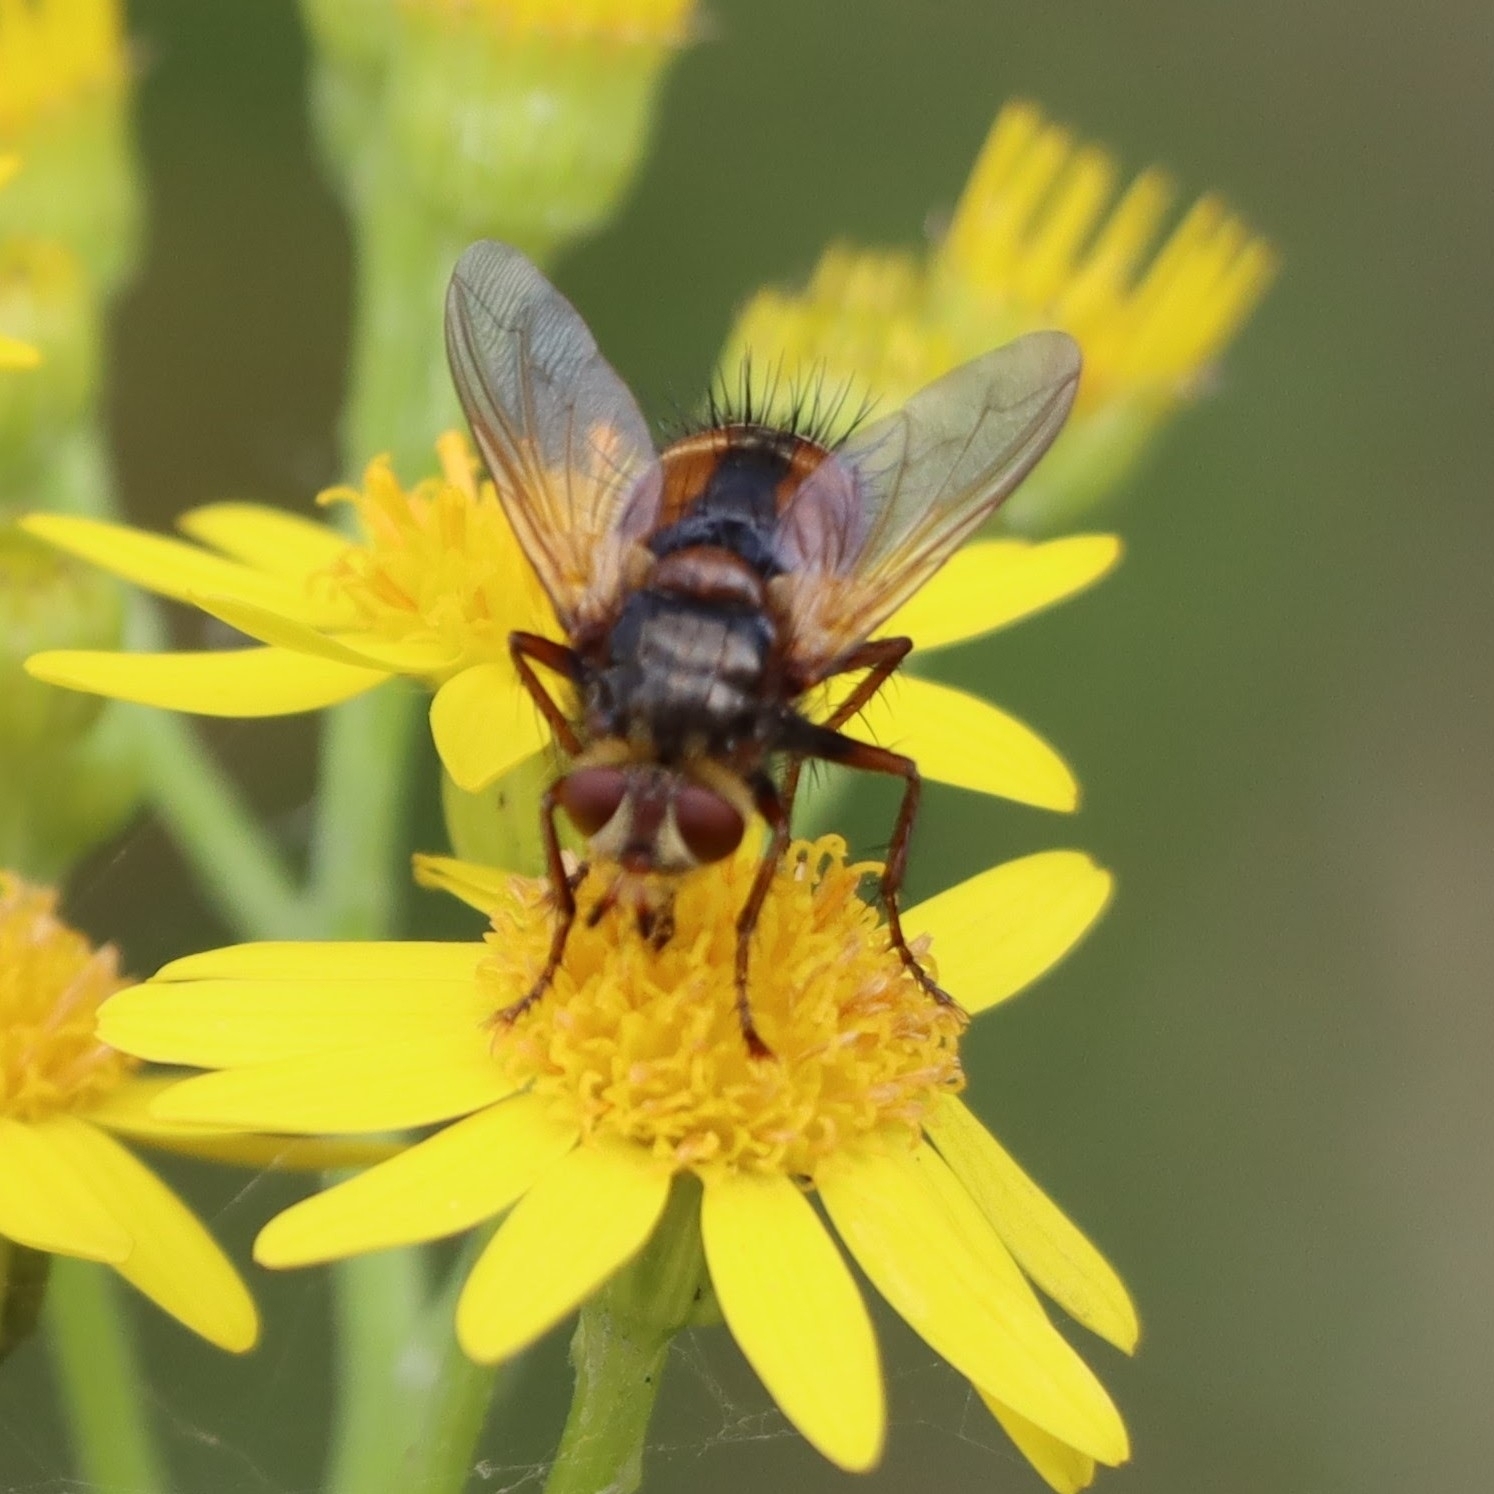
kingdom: Animalia
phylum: Arthropoda
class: Insecta
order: Diptera
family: Tachinidae
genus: Tachina
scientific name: Tachina fera
